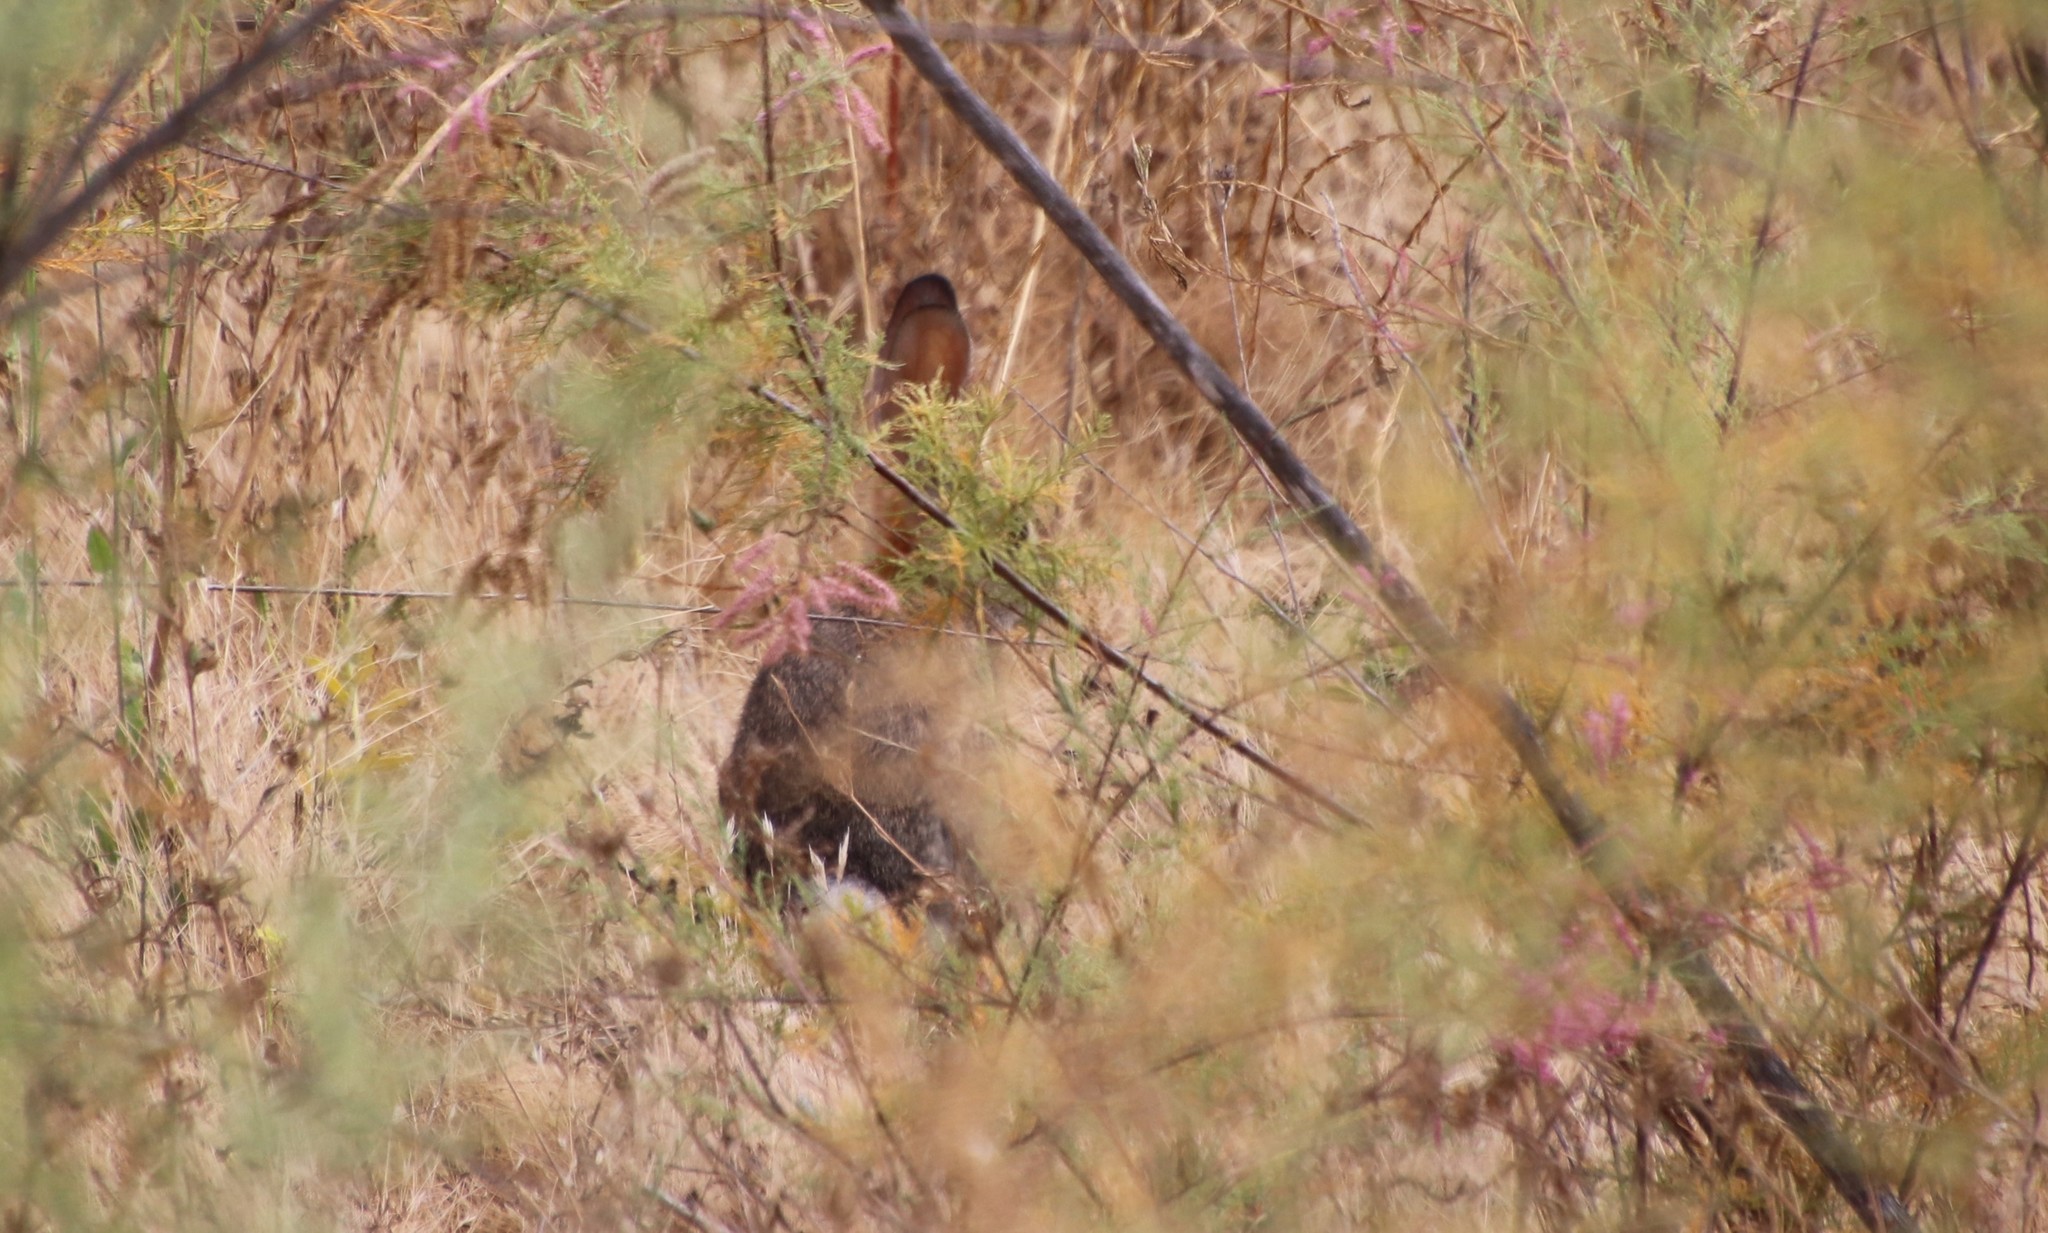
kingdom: Animalia
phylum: Chordata
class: Mammalia
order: Lagomorpha
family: Leporidae
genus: Sylvilagus
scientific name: Sylvilagus audubonii
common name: Desert cottontail
